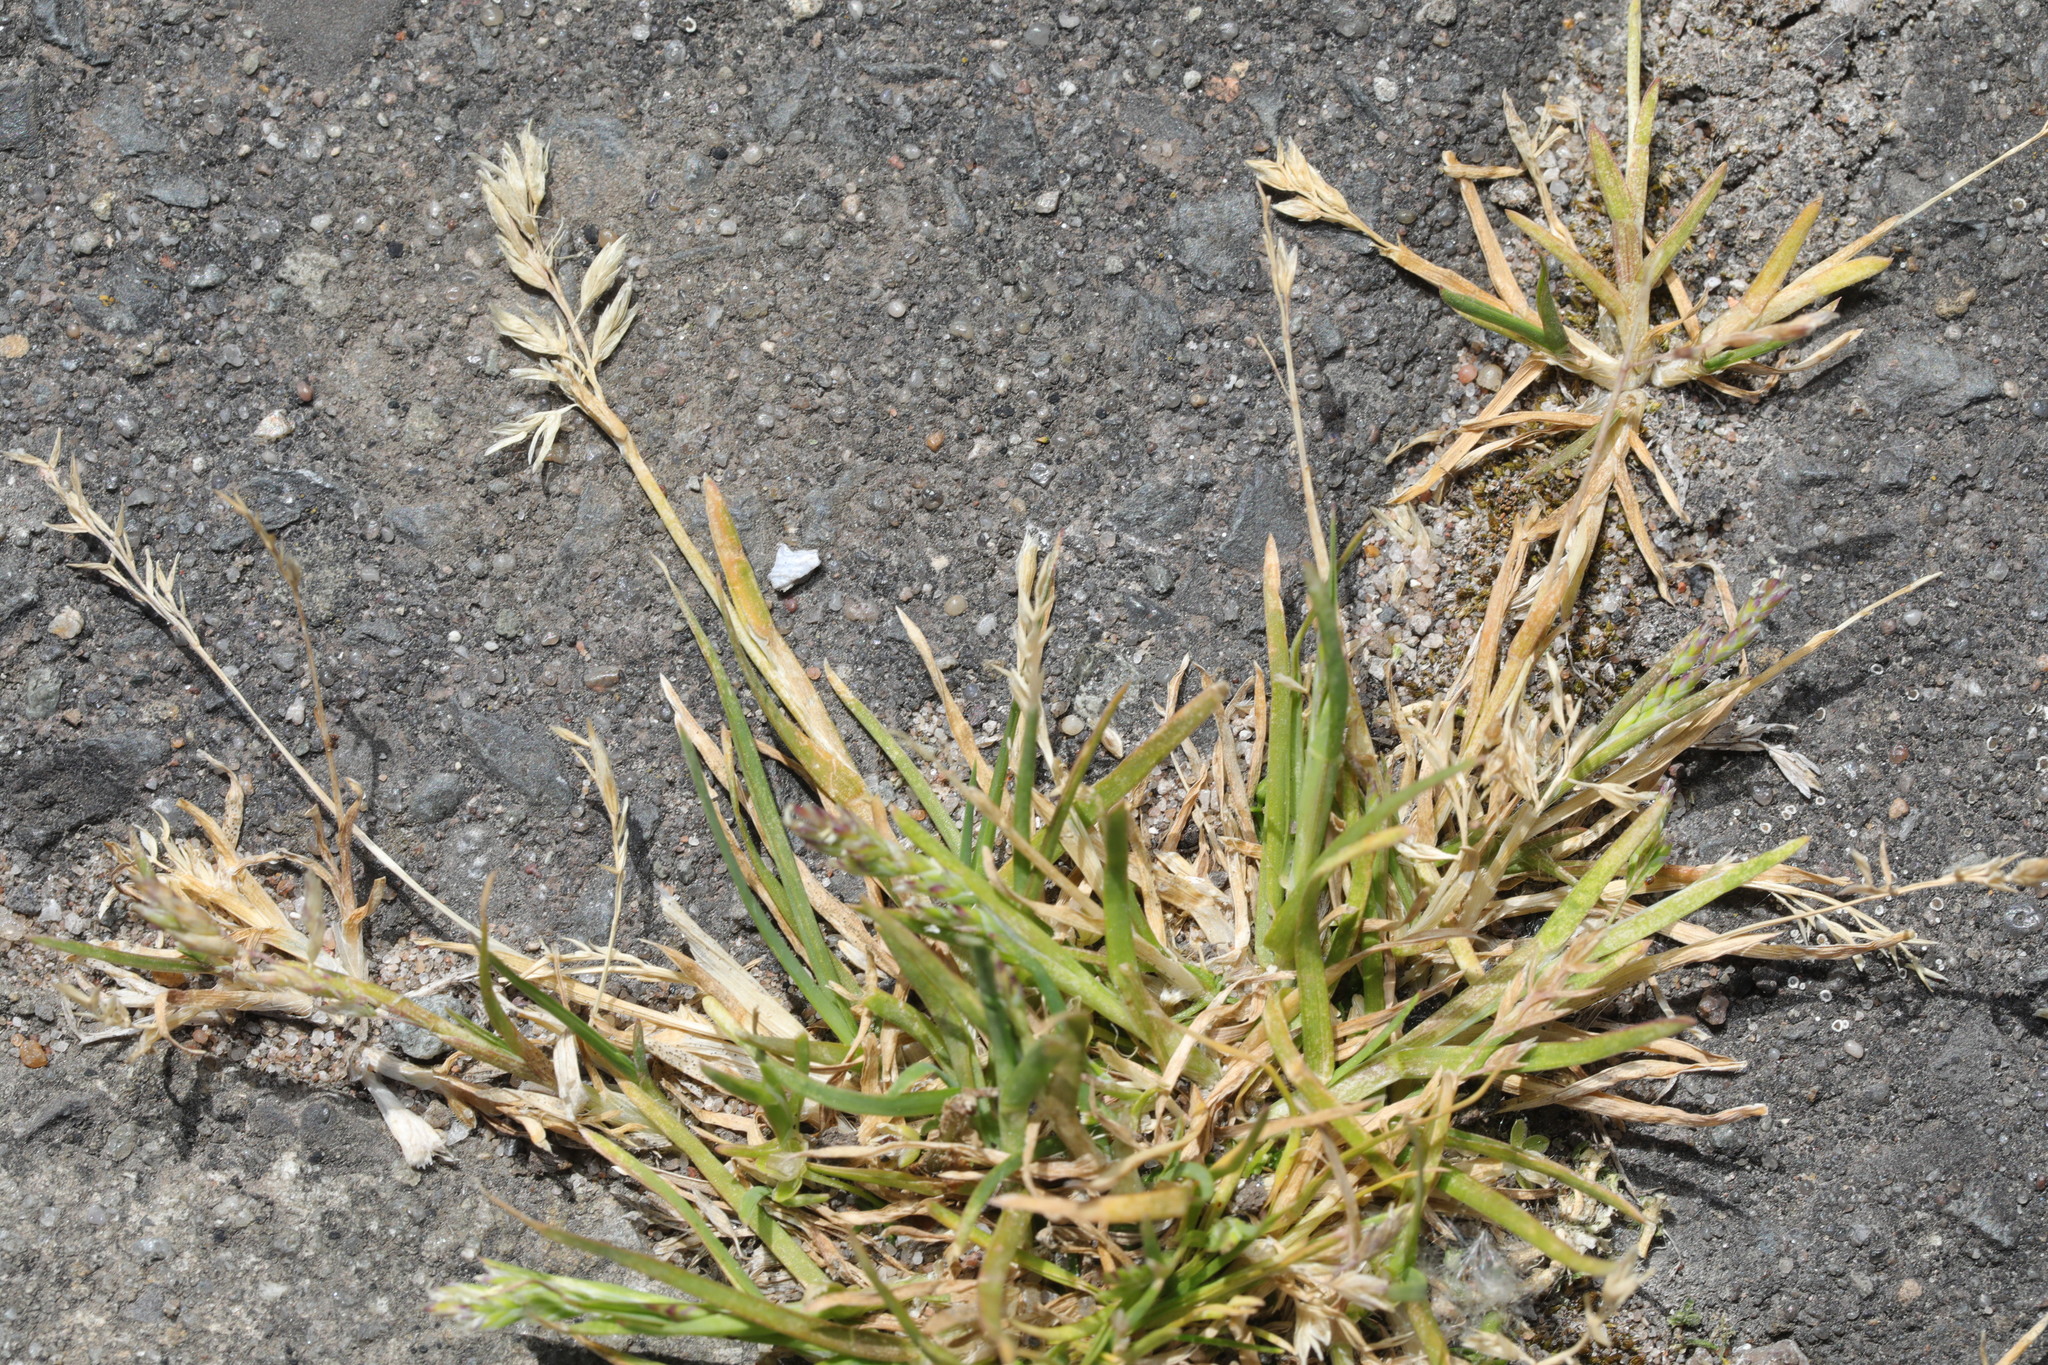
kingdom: Plantae
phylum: Tracheophyta
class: Liliopsida
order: Poales
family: Poaceae
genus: Poa
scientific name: Poa annua
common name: Annual bluegrass
